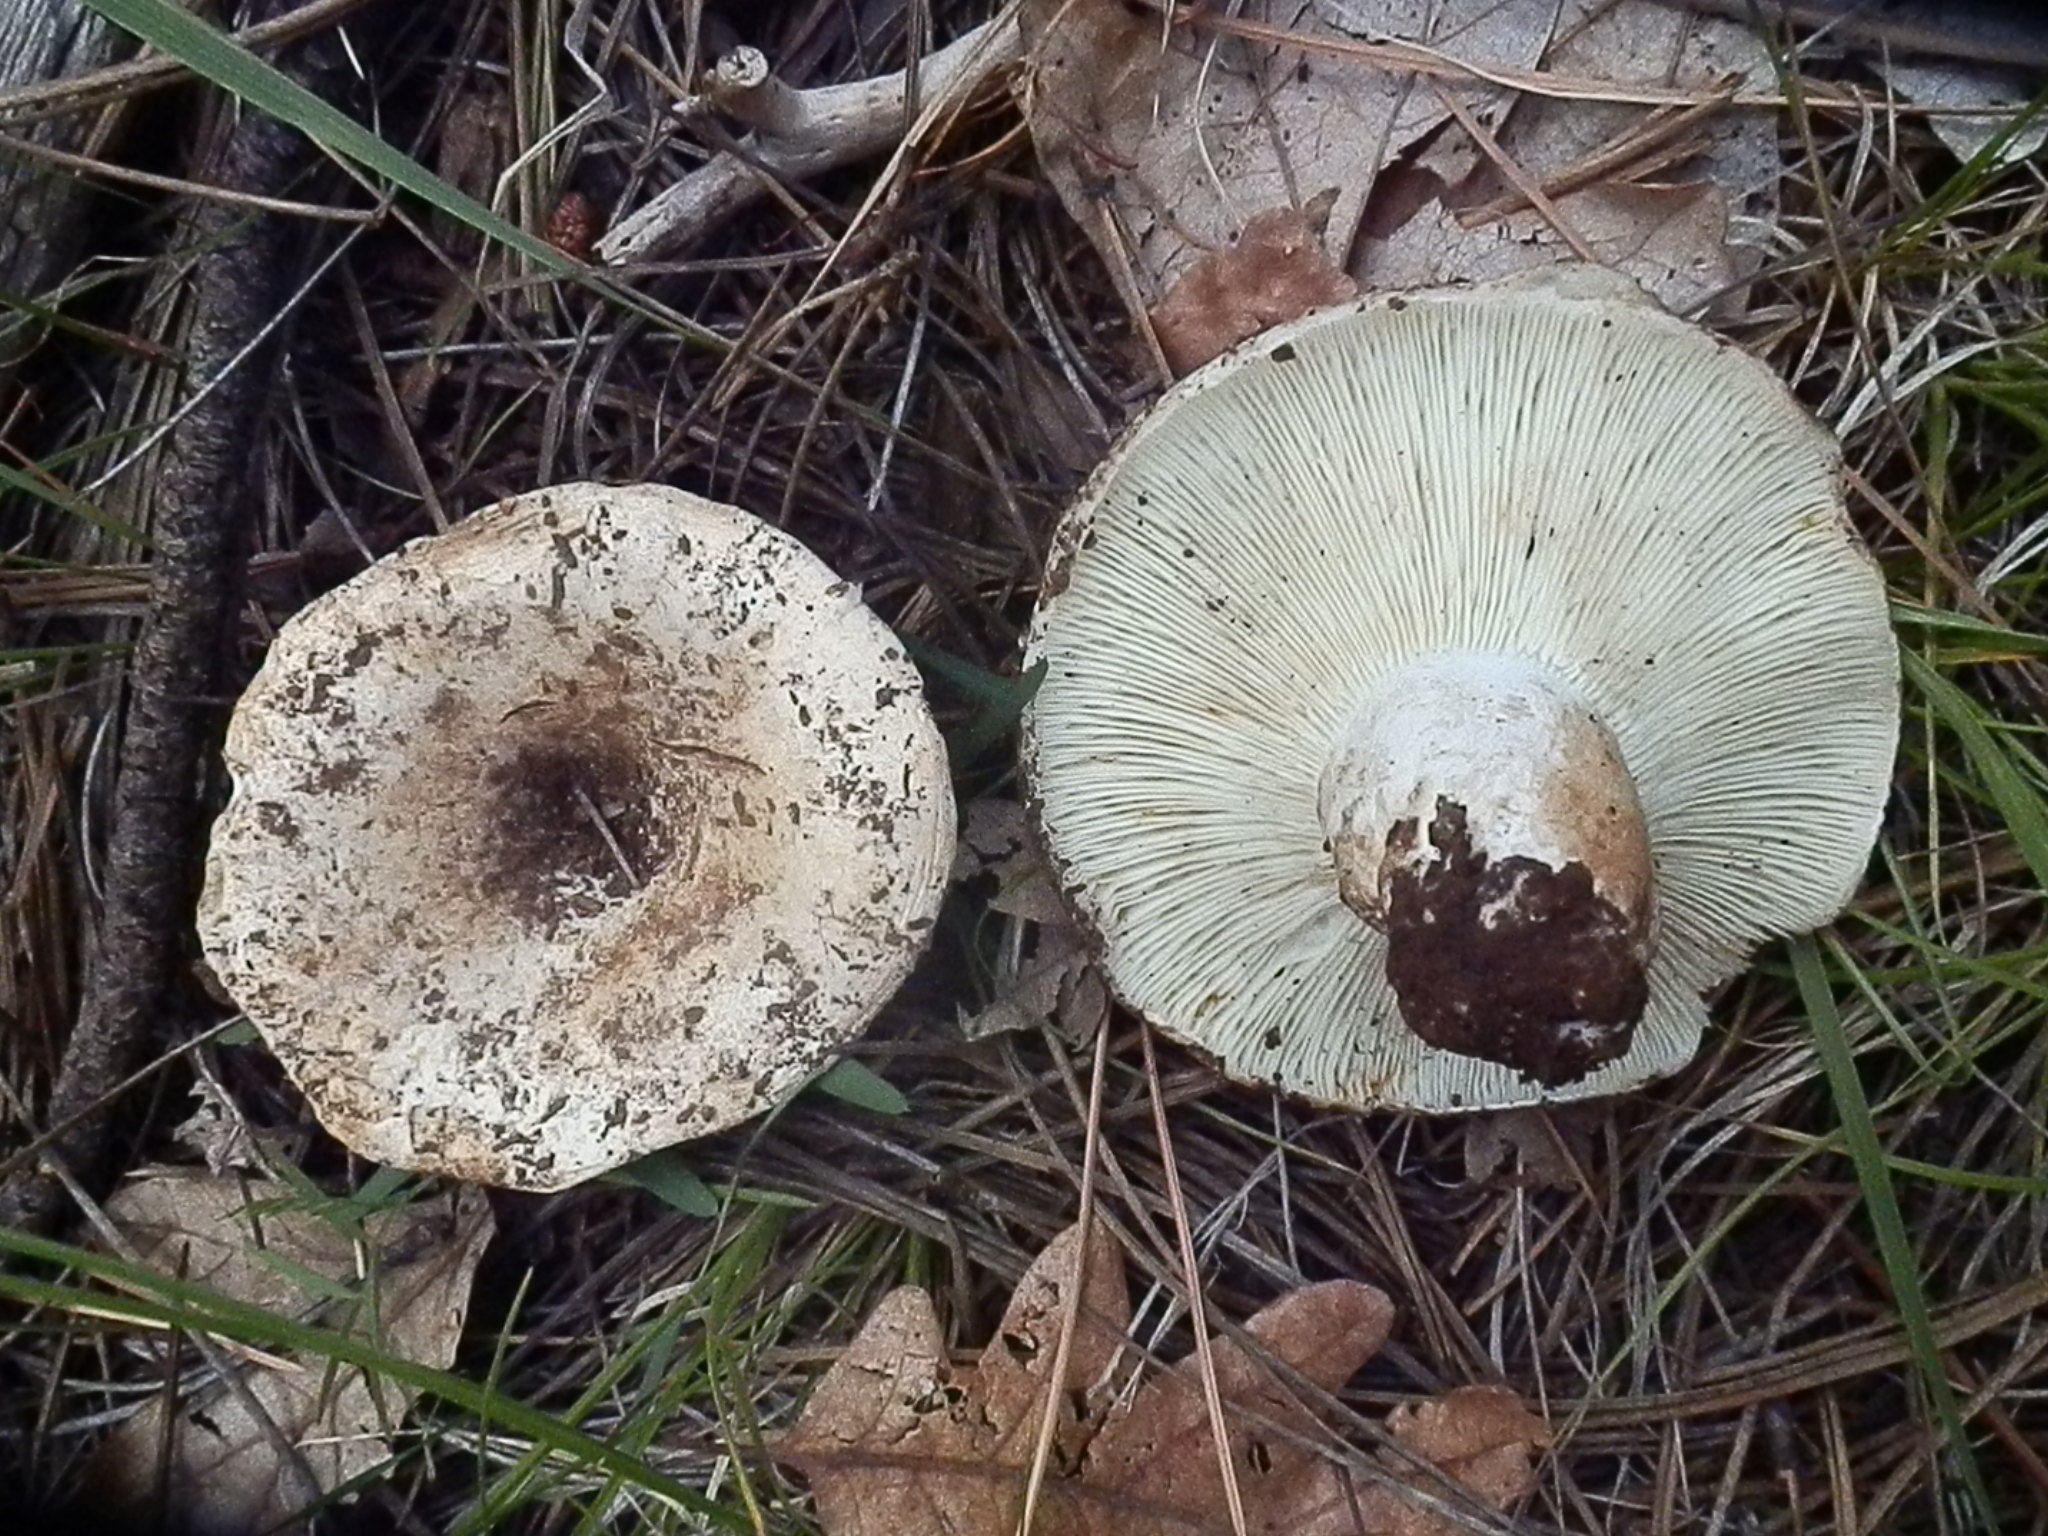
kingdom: Fungi
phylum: Basidiomycota
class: Agaricomycetes
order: Russulales
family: Russulaceae
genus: Russula
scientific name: Russula brevipes
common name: Short-stemmed russula
